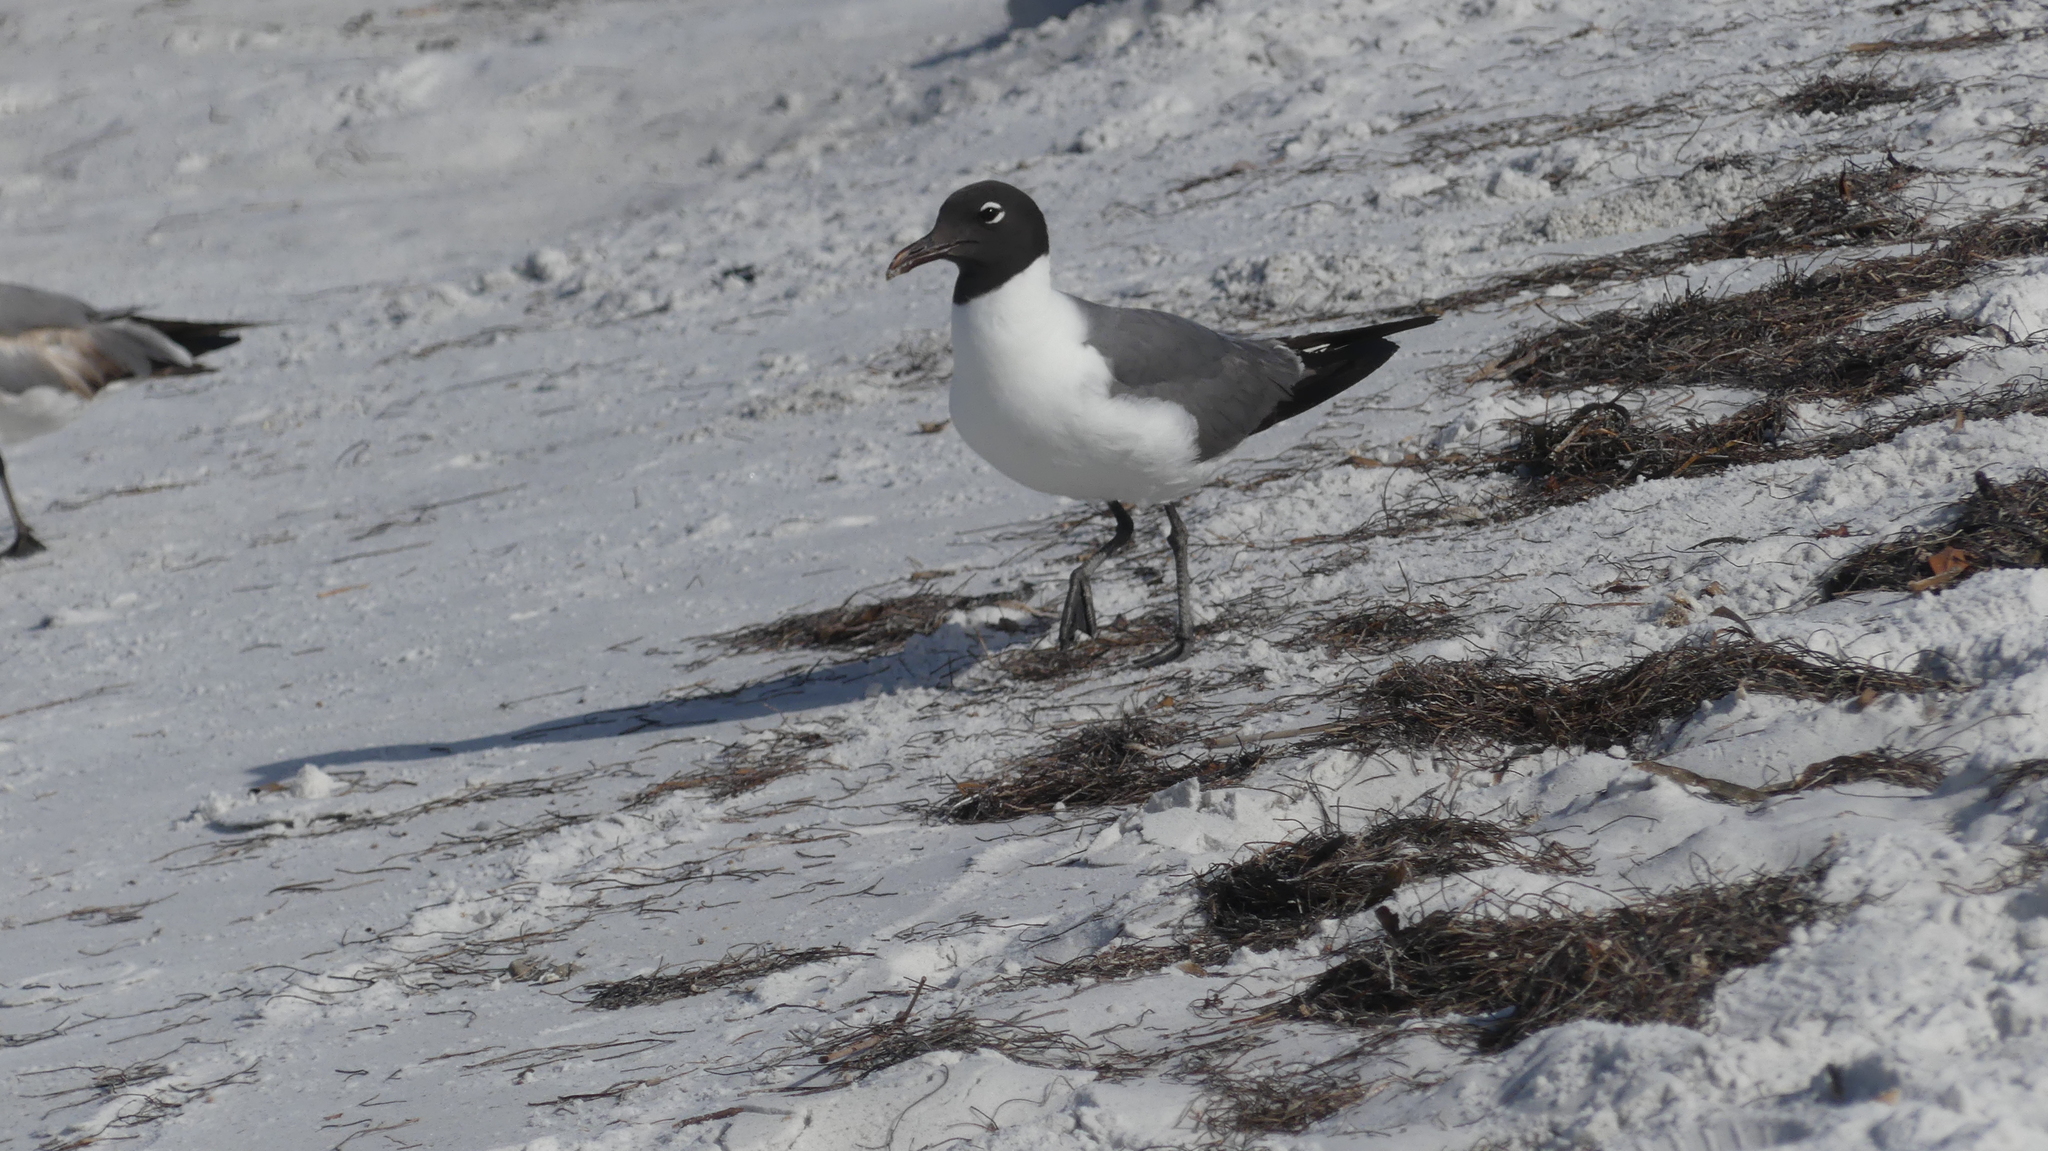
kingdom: Animalia
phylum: Chordata
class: Aves
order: Charadriiformes
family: Laridae
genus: Leucophaeus
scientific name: Leucophaeus atricilla
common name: Laughing gull
